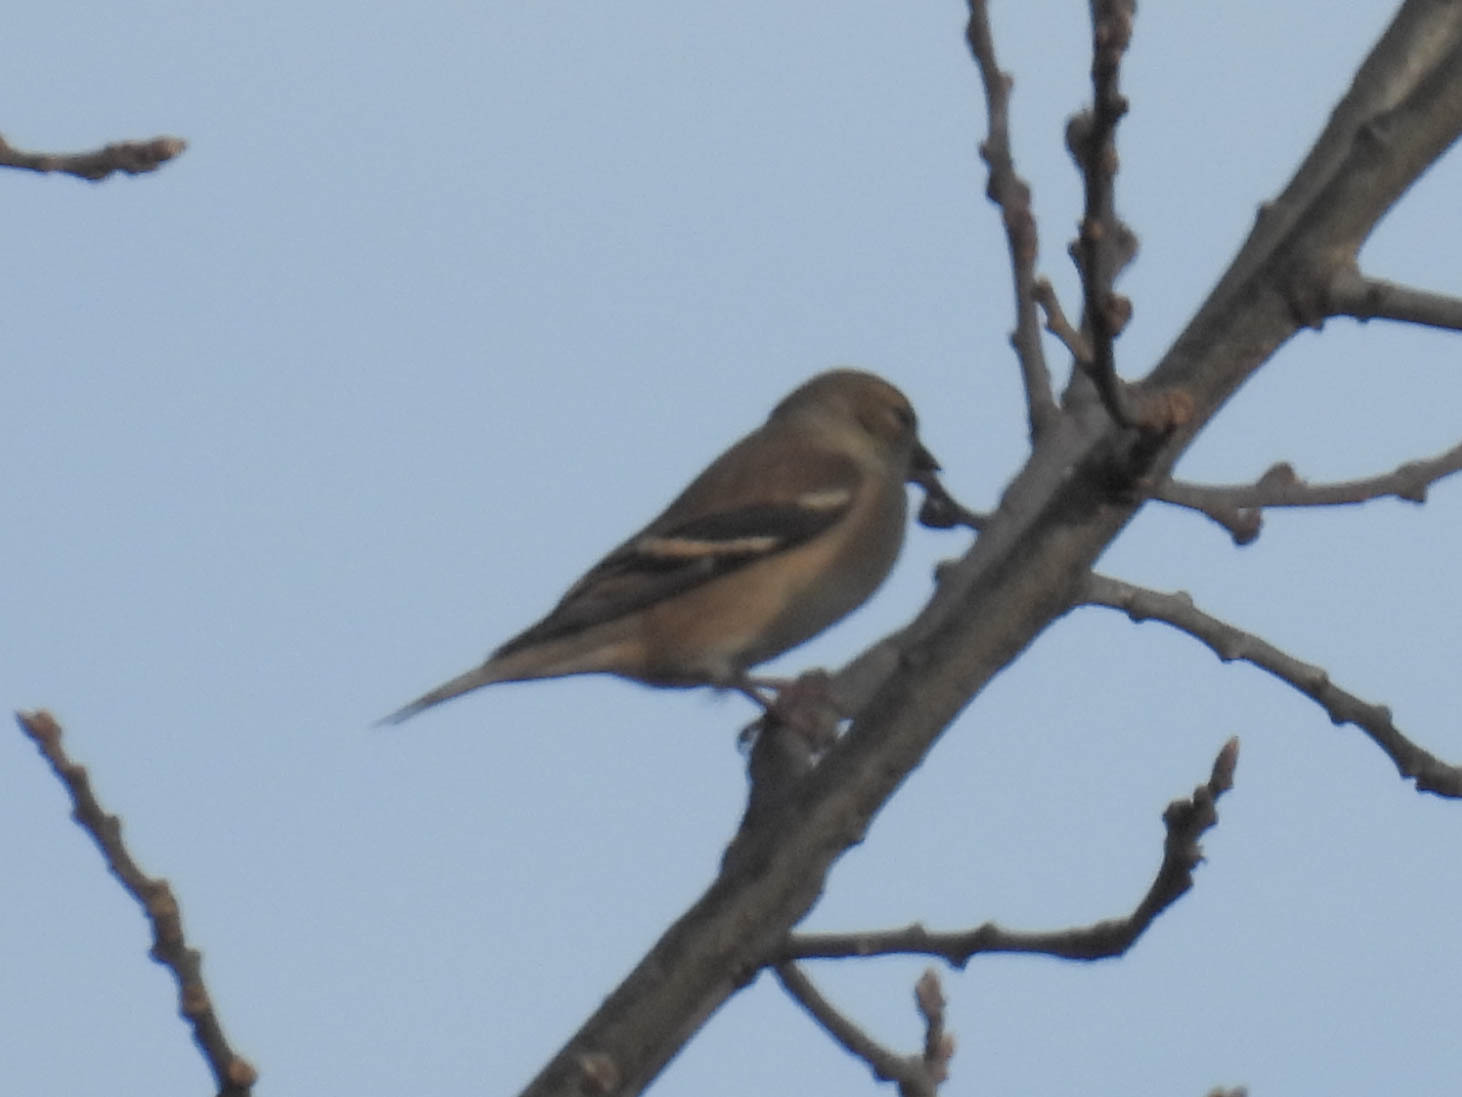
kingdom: Animalia
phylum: Chordata
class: Aves
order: Passeriformes
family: Fringillidae
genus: Spinus
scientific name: Spinus tristis
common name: American goldfinch
